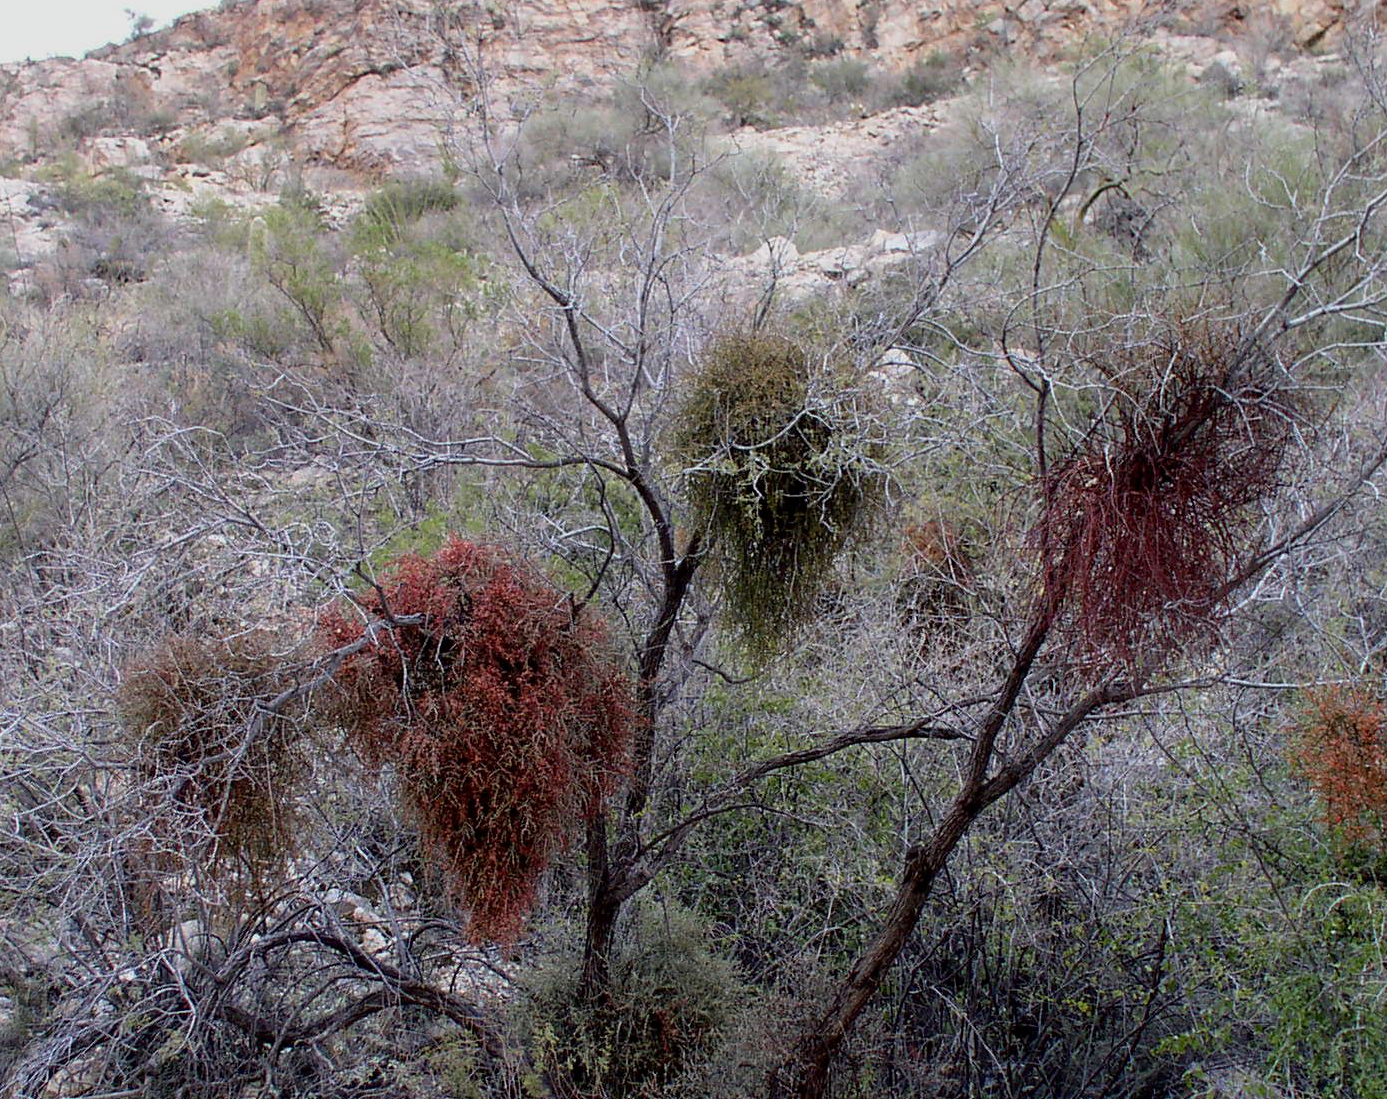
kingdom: Plantae
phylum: Tracheophyta
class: Magnoliopsida
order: Santalales
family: Viscaceae
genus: Phoradendron
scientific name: Phoradendron californicum
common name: Acacia mistletoe
